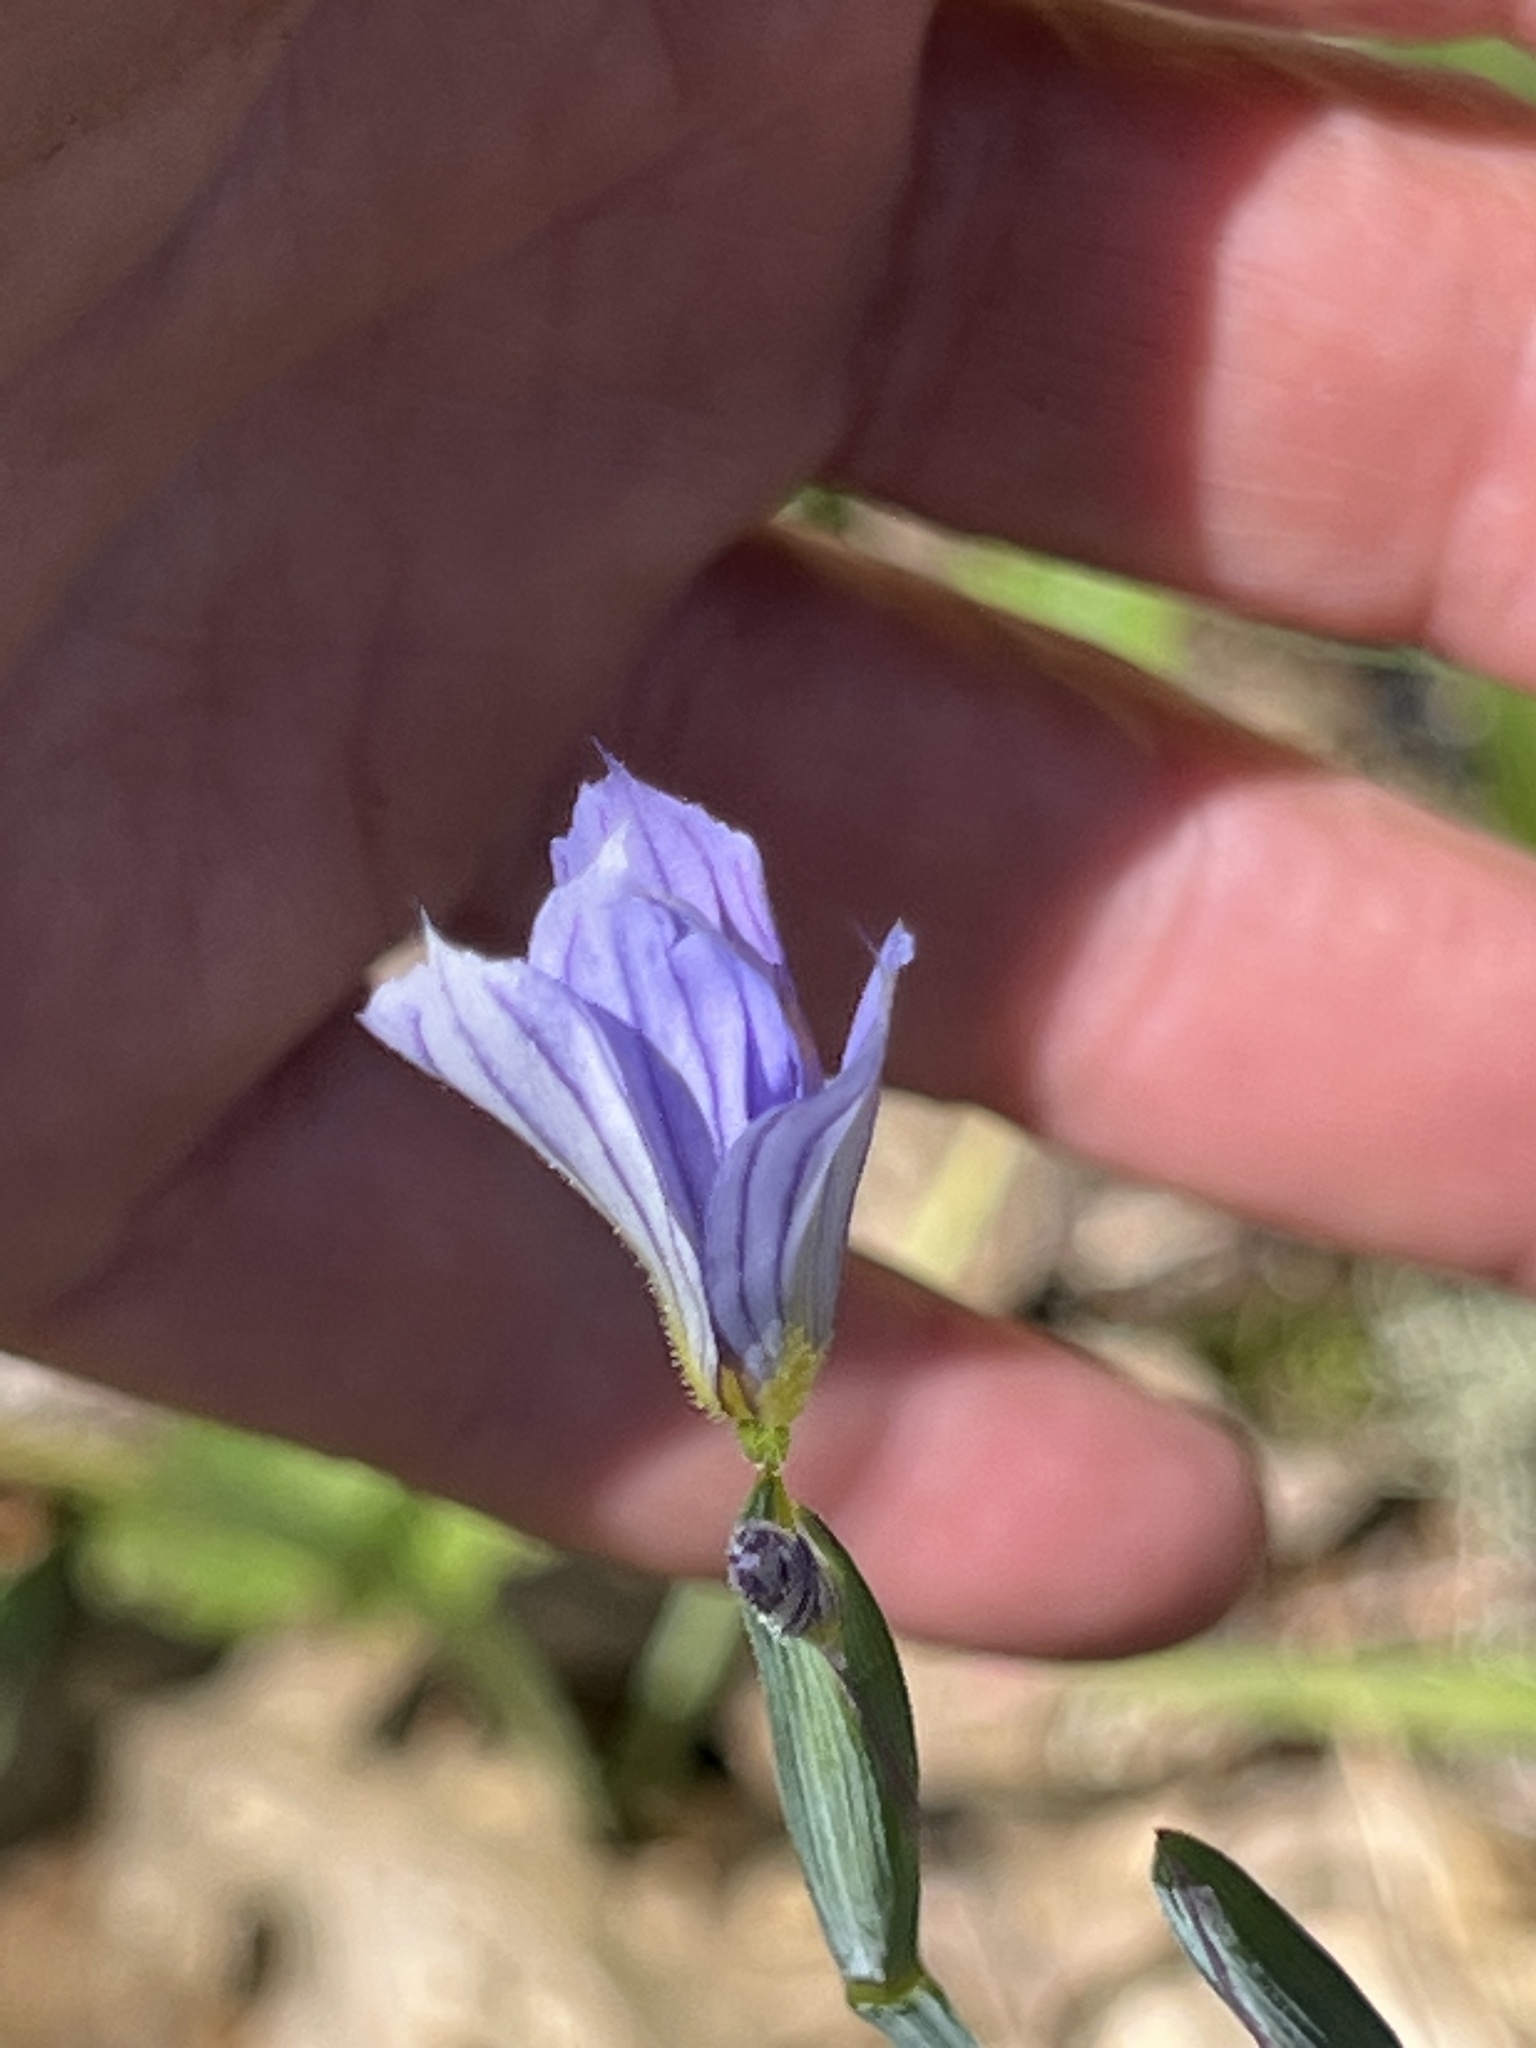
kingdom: Plantae
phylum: Tracheophyta
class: Liliopsida
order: Asparagales
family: Iridaceae
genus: Sisyrinchium
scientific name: Sisyrinchium bellum
